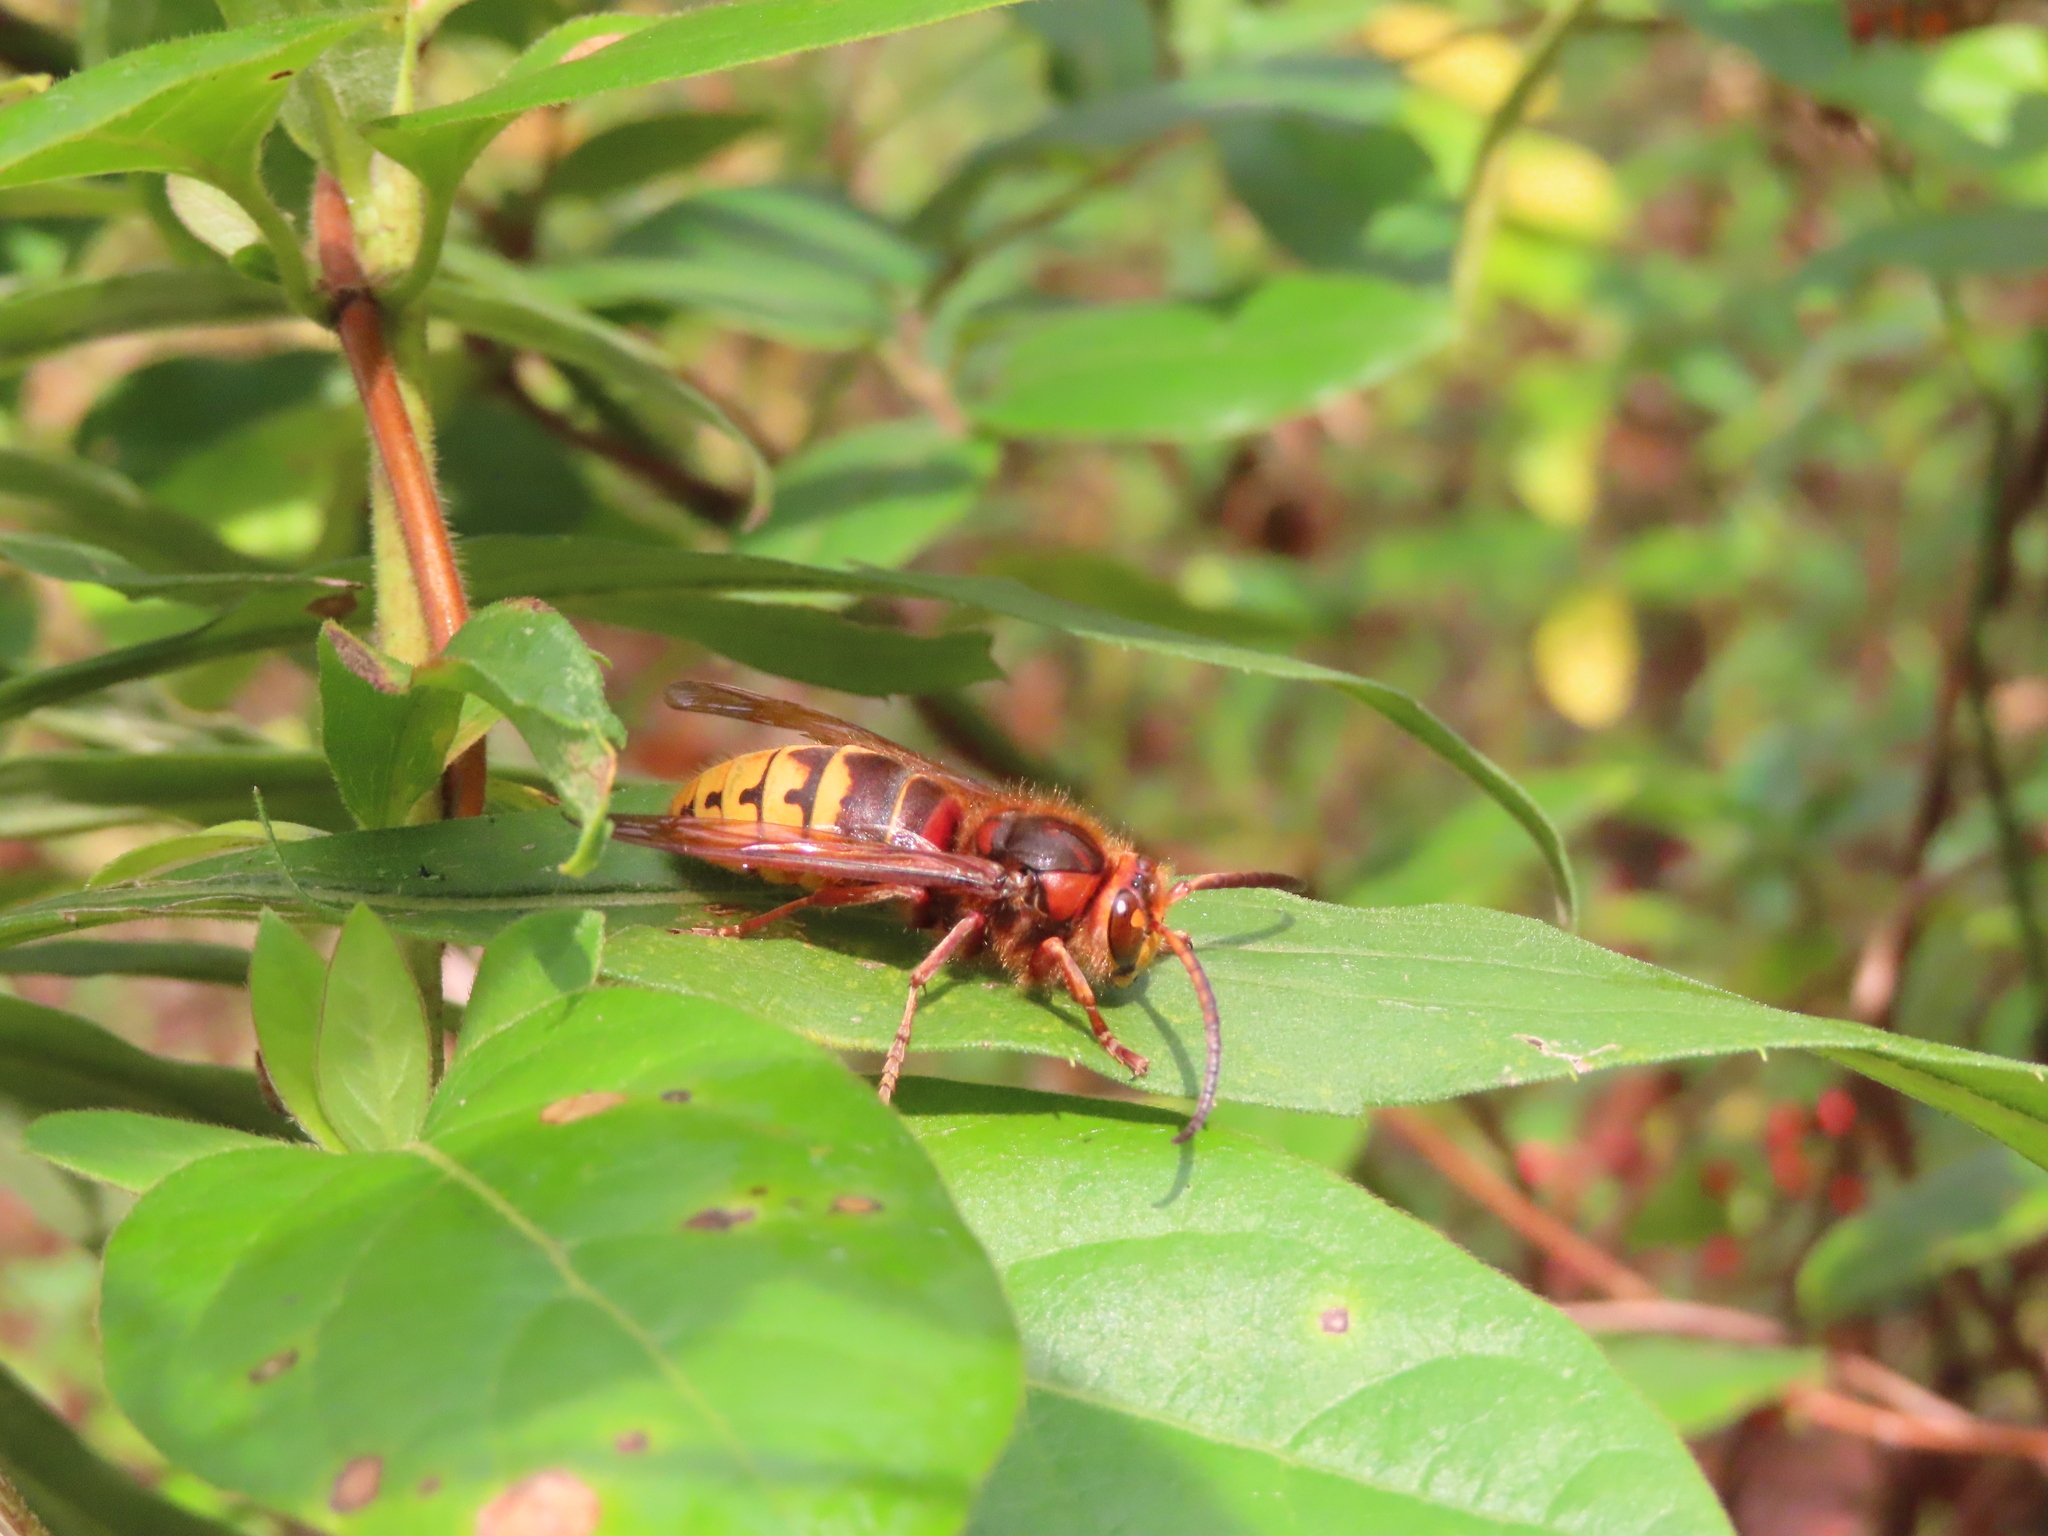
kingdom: Animalia
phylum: Arthropoda
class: Insecta
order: Hymenoptera
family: Vespidae
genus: Vespa
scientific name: Vespa crabro
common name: Hornet
